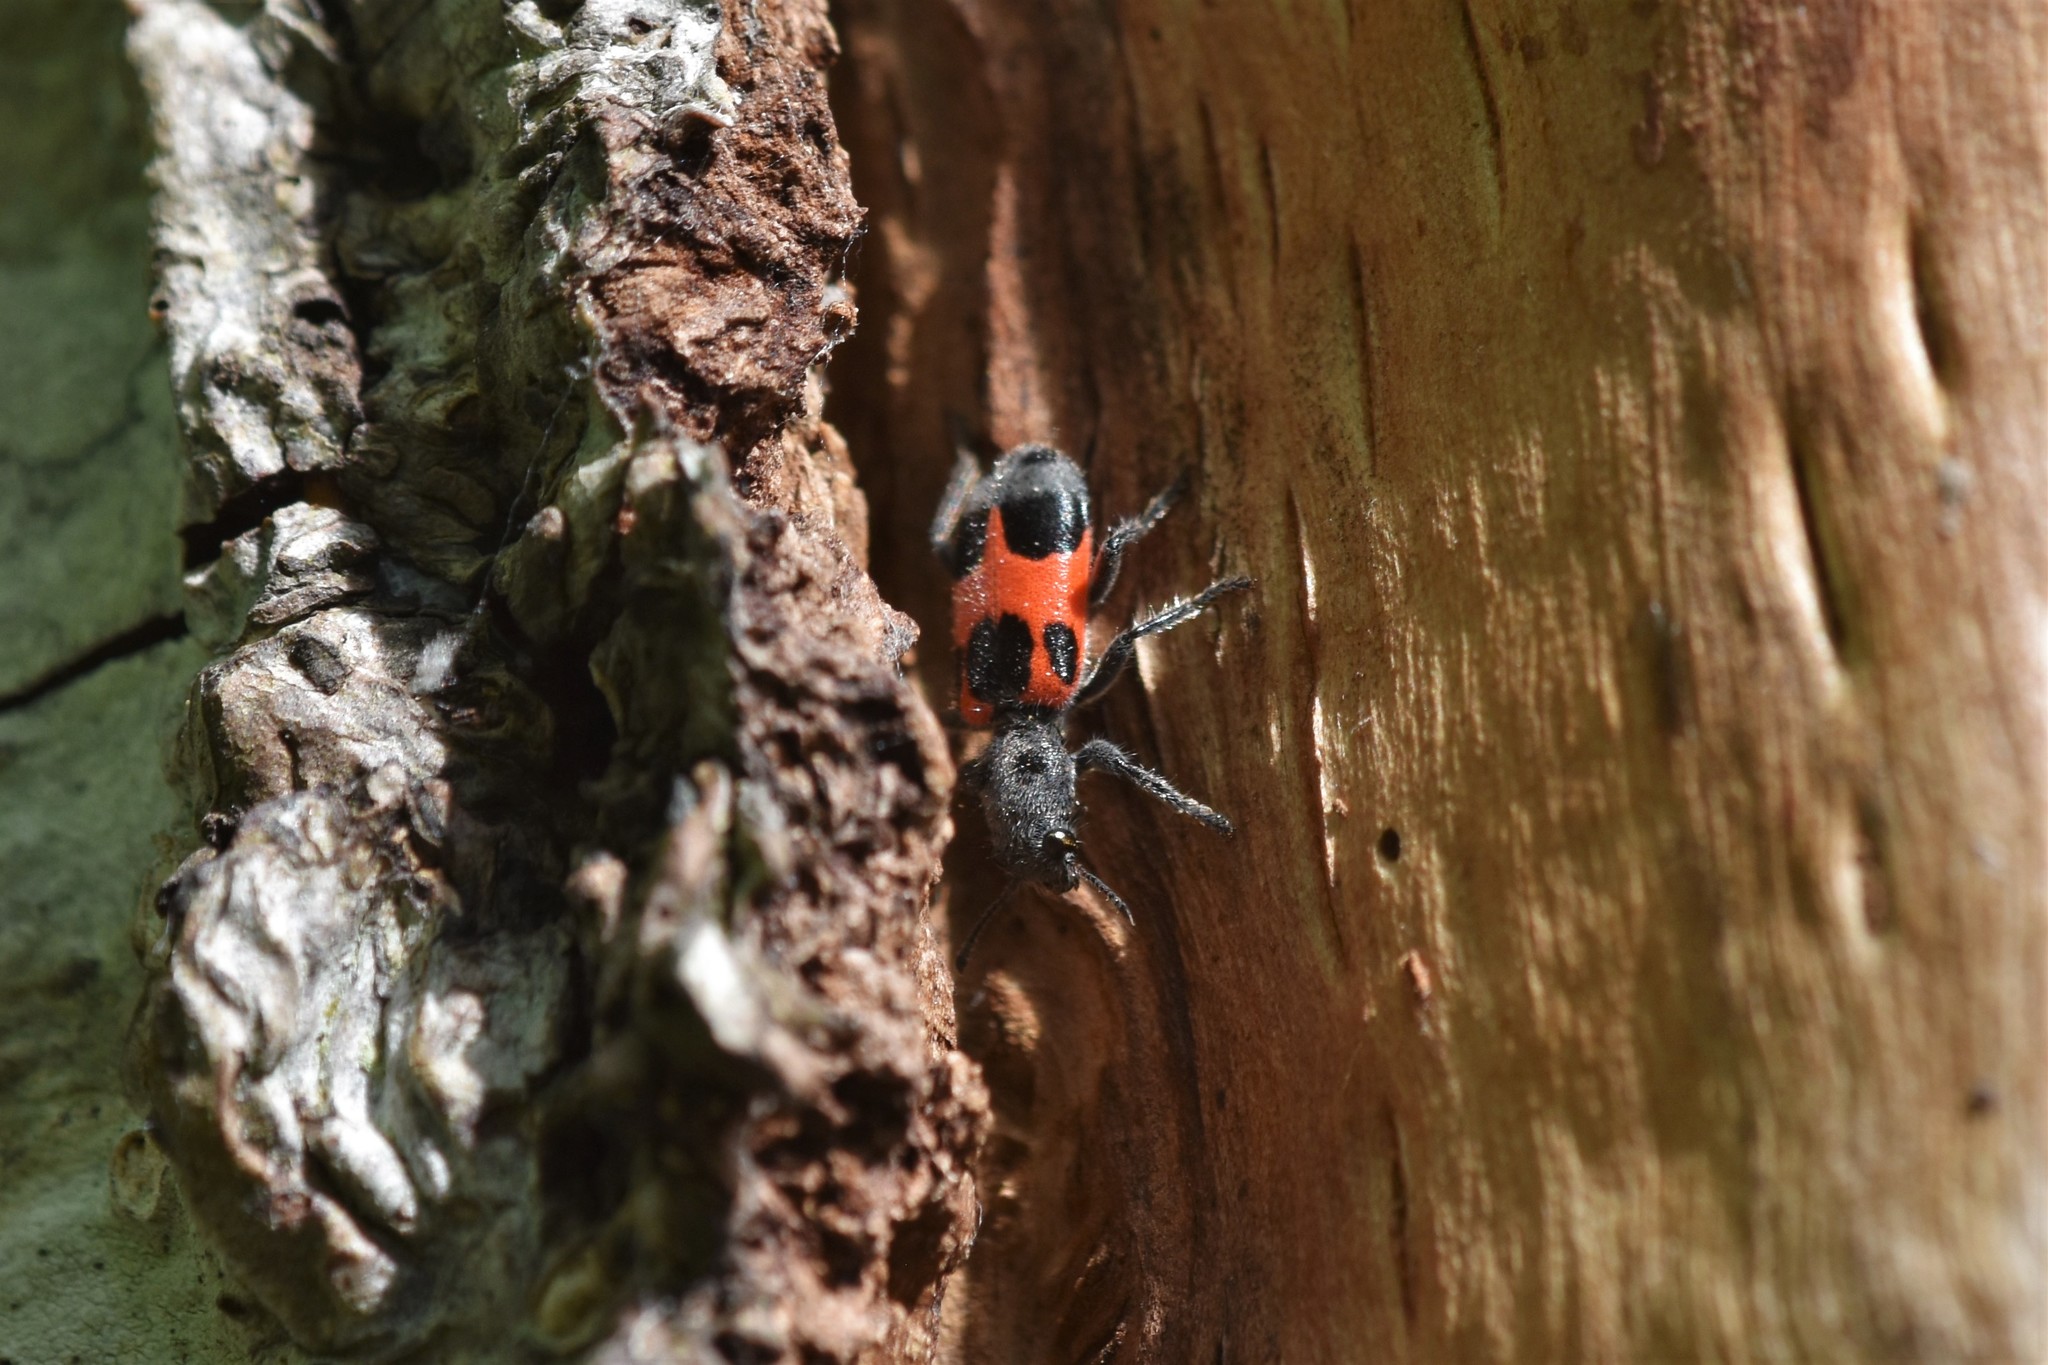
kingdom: Animalia
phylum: Arthropoda
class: Insecta
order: Coleoptera
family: Cleridae
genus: Enoclerus
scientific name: Enoclerus eximius
